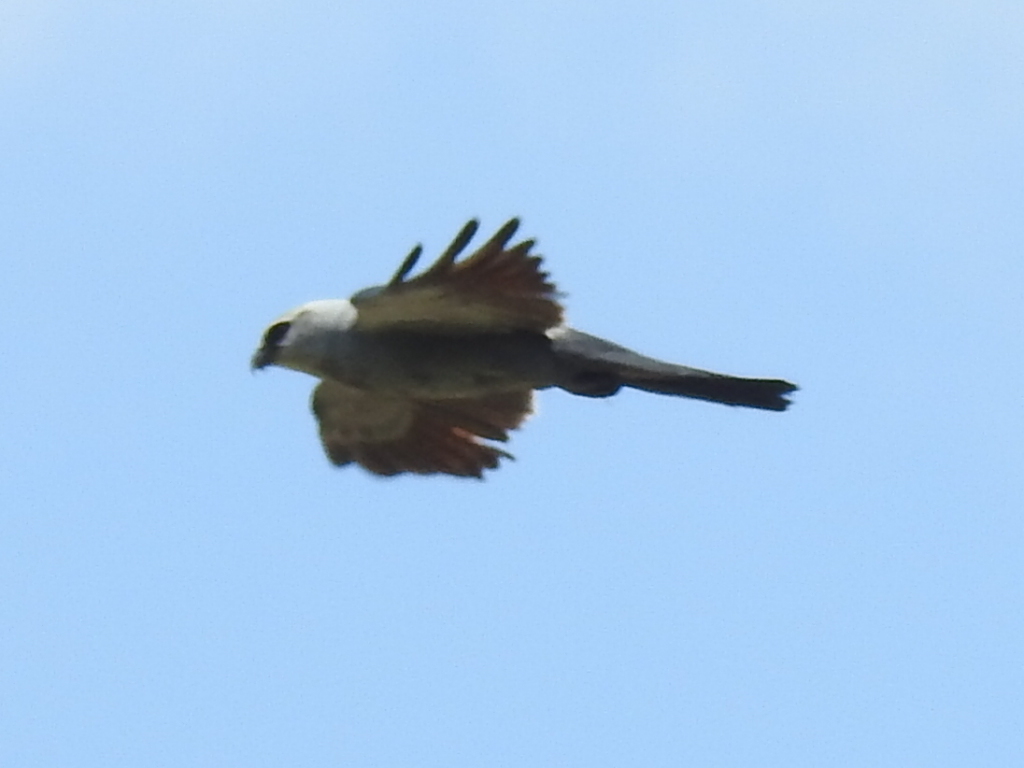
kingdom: Animalia
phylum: Chordata
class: Aves
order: Accipitriformes
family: Accipitridae
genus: Ictinia
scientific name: Ictinia mississippiensis
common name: Mississippi kite
